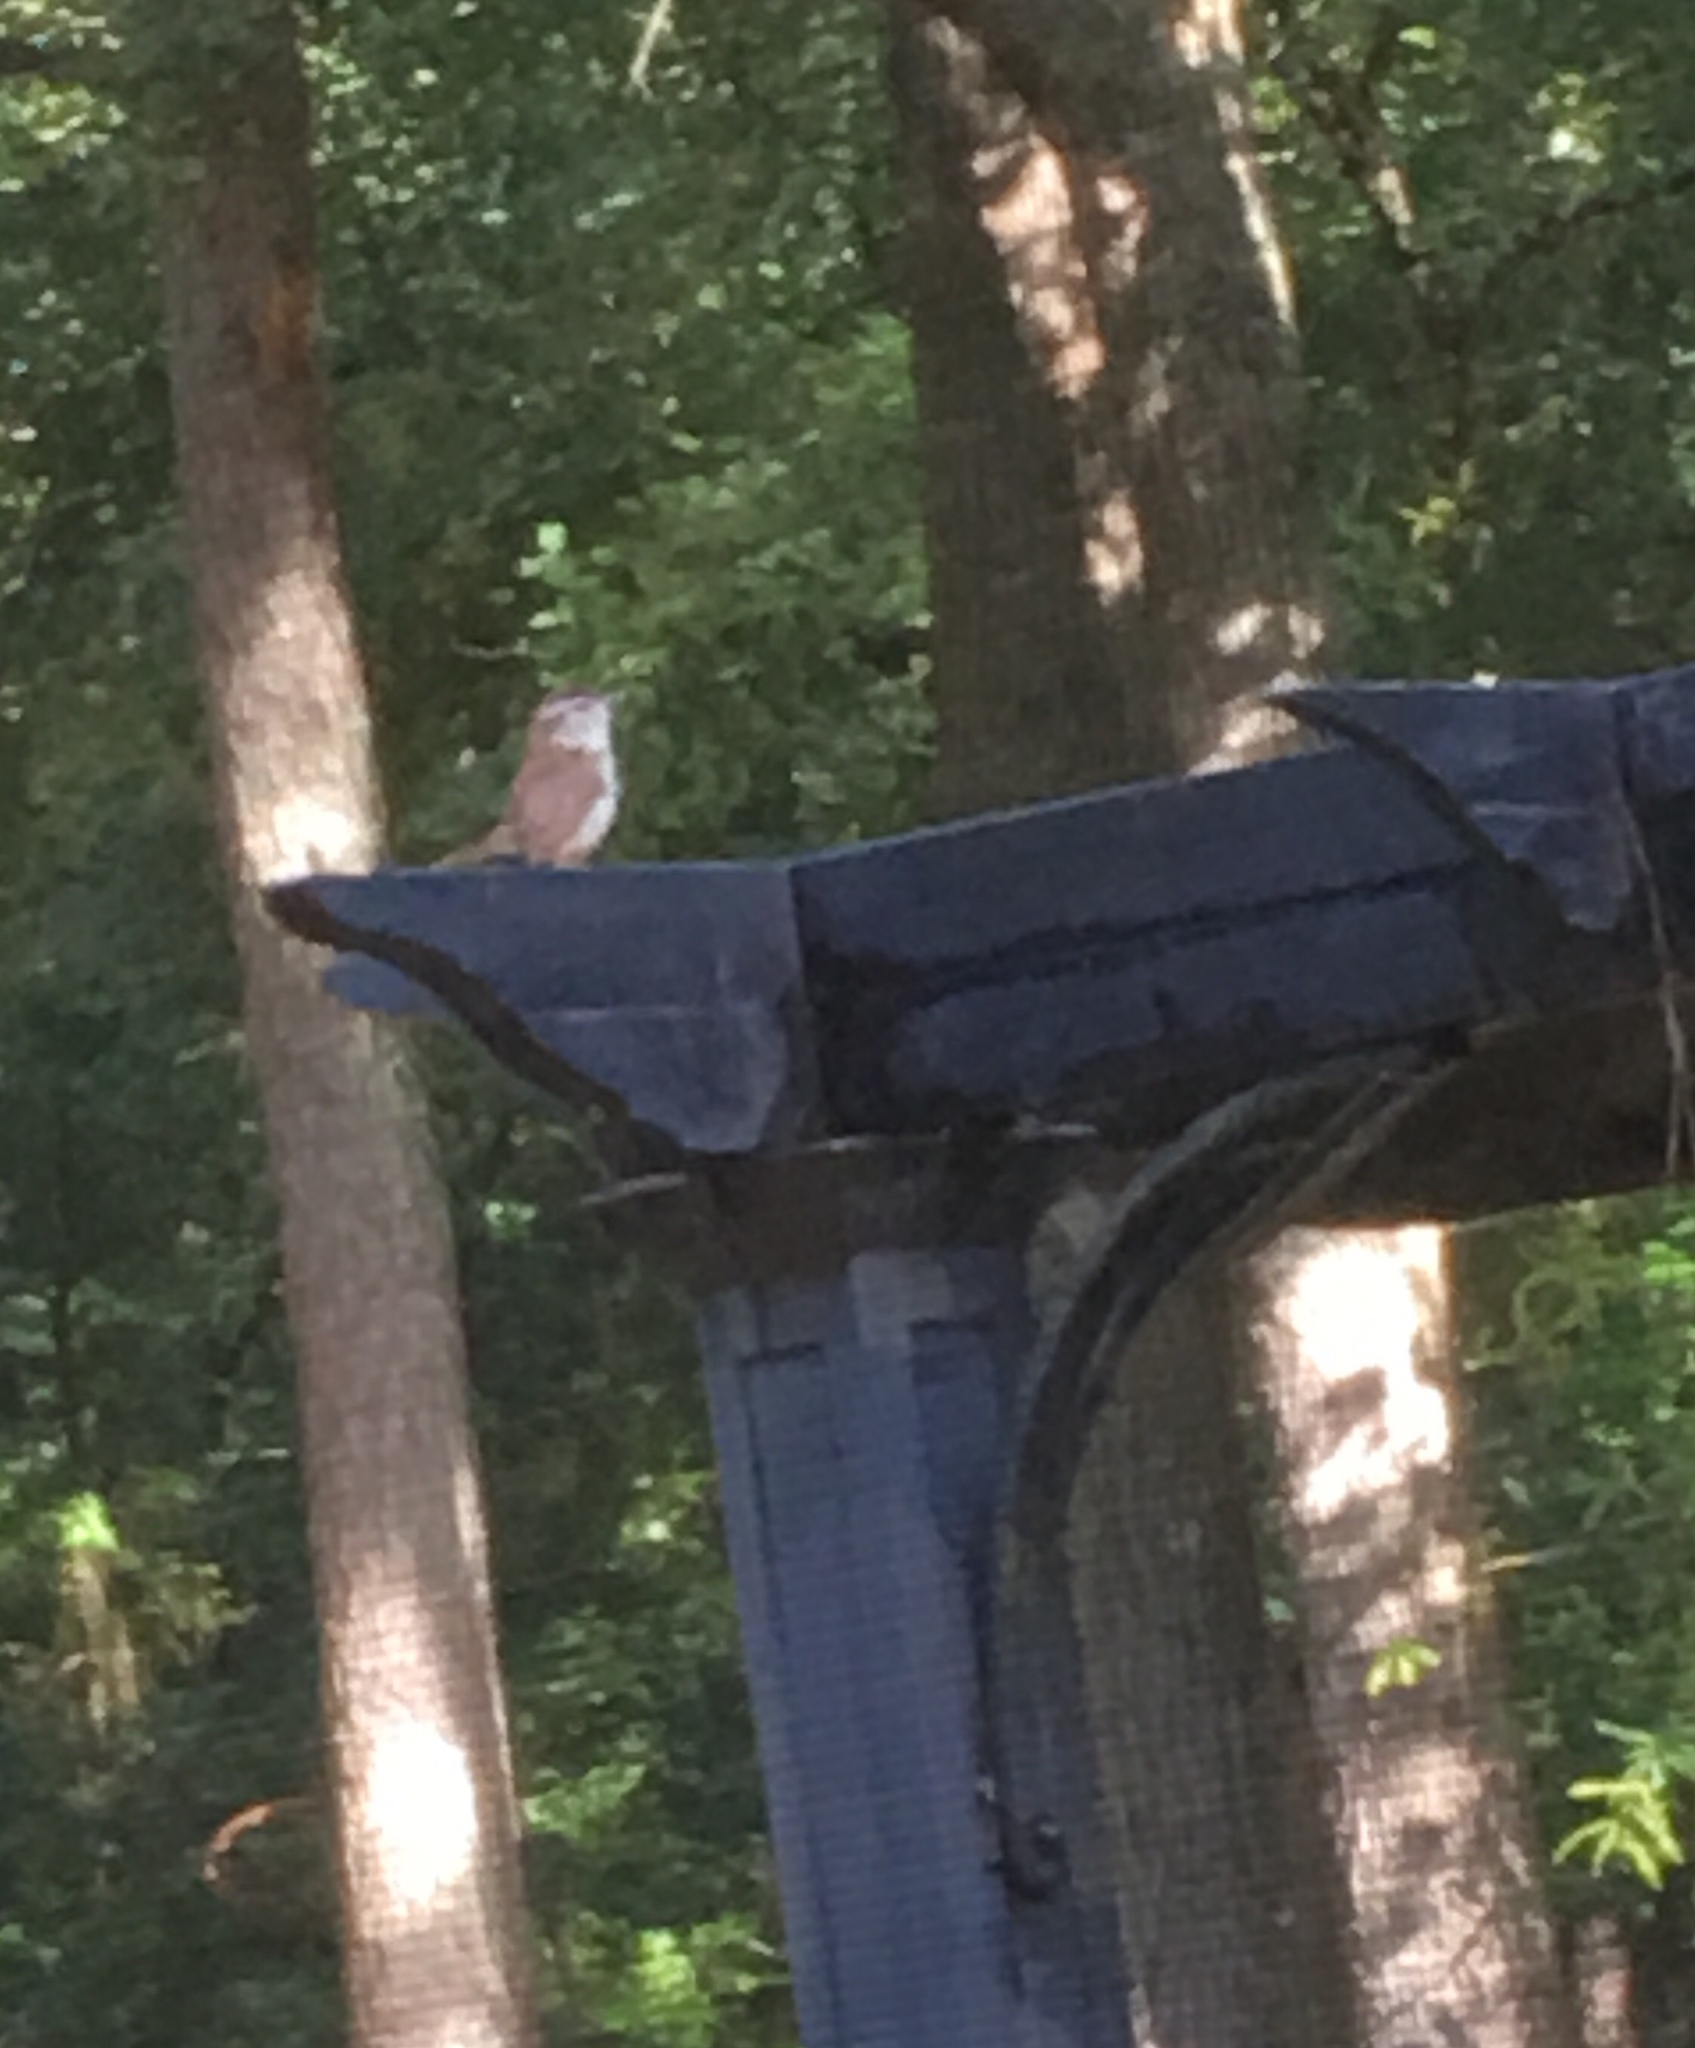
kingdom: Animalia
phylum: Chordata
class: Aves
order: Passeriformes
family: Troglodytidae
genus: Thryothorus
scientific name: Thryothorus ludovicianus
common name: Carolina wren
